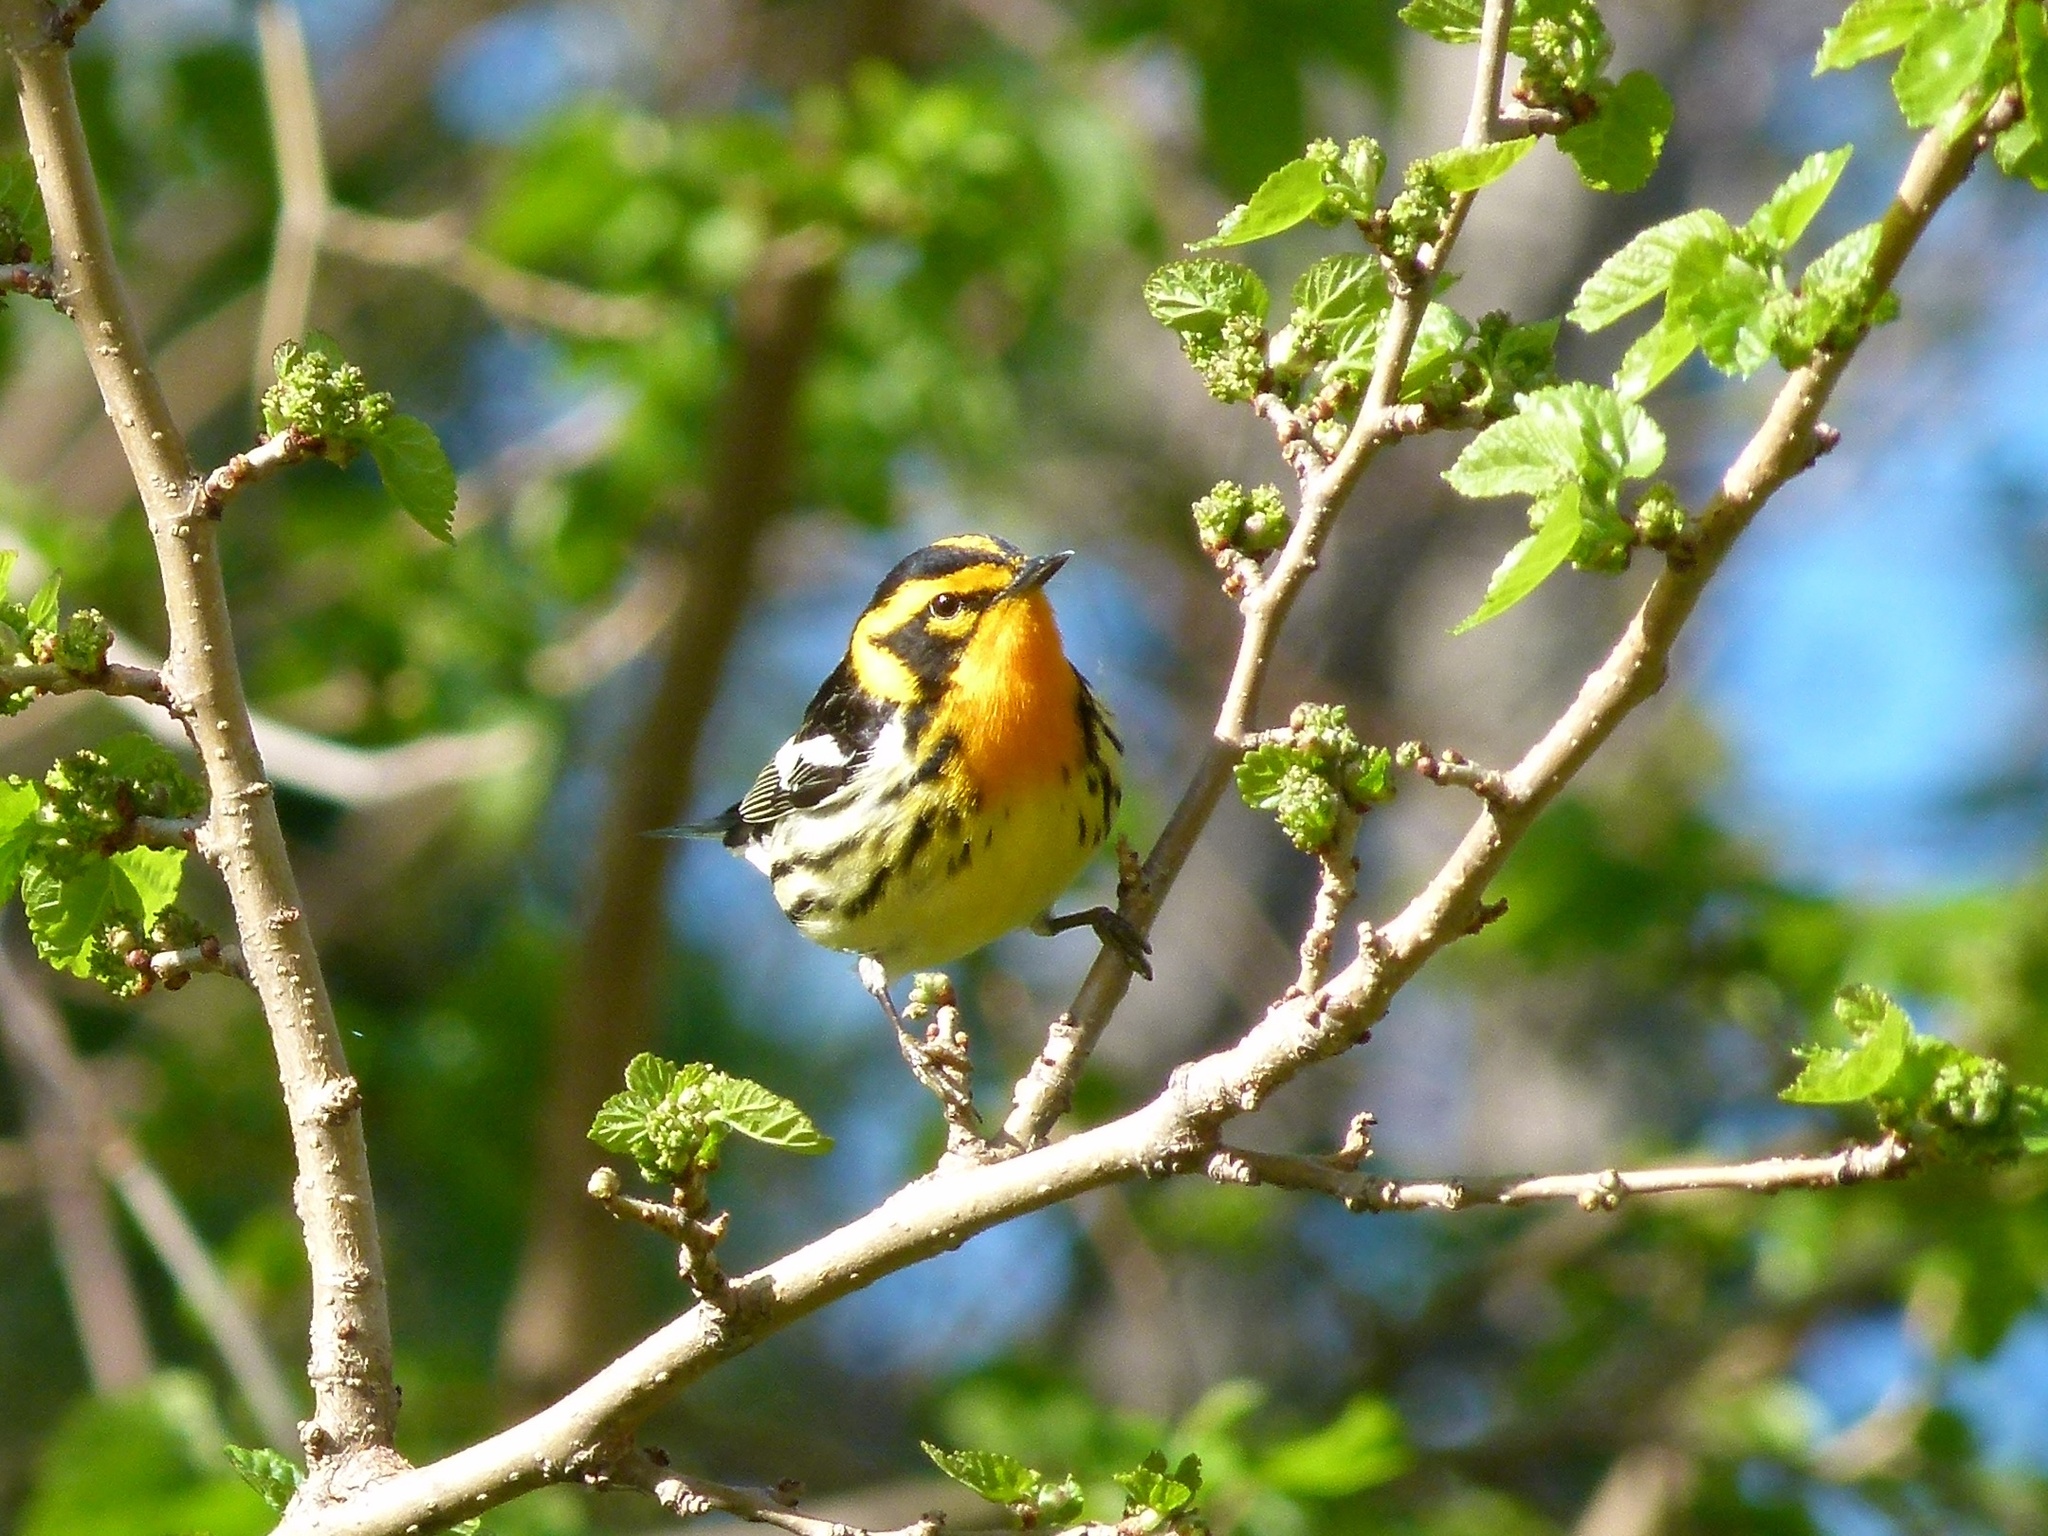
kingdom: Animalia
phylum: Chordata
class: Aves
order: Passeriformes
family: Parulidae
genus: Setophaga
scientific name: Setophaga fusca
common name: Blackburnian warbler
